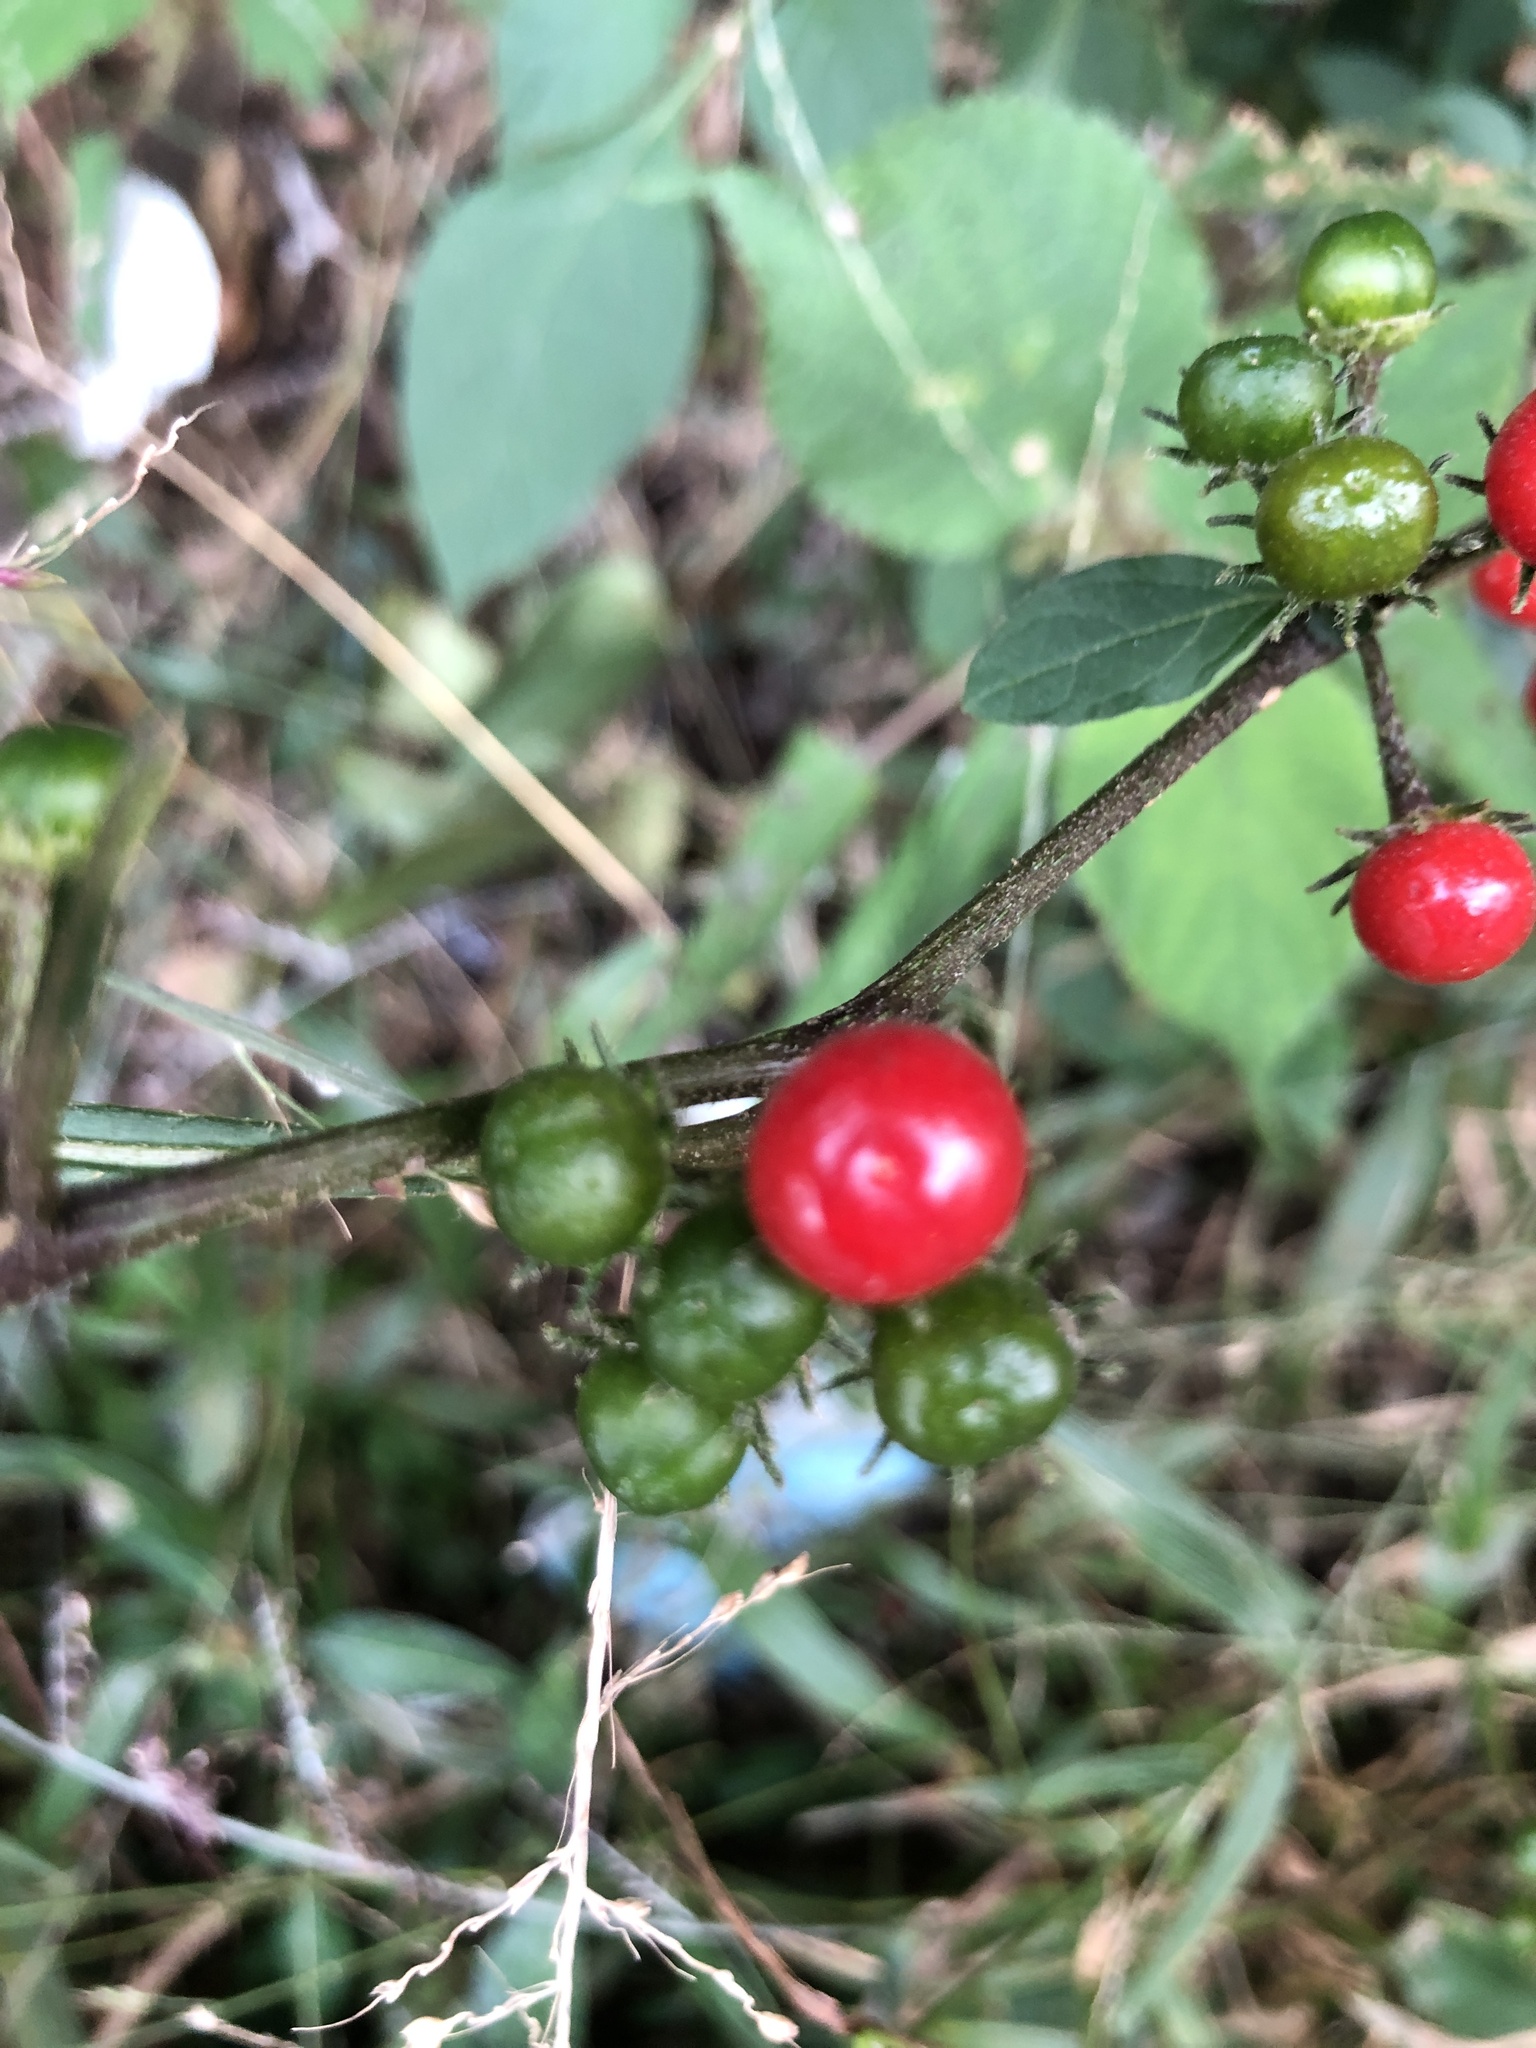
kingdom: Plantae
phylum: Tracheophyta
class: Magnoliopsida
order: Solanales
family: Solanaceae
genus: Lycianthes
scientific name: Lycianthes biflora
